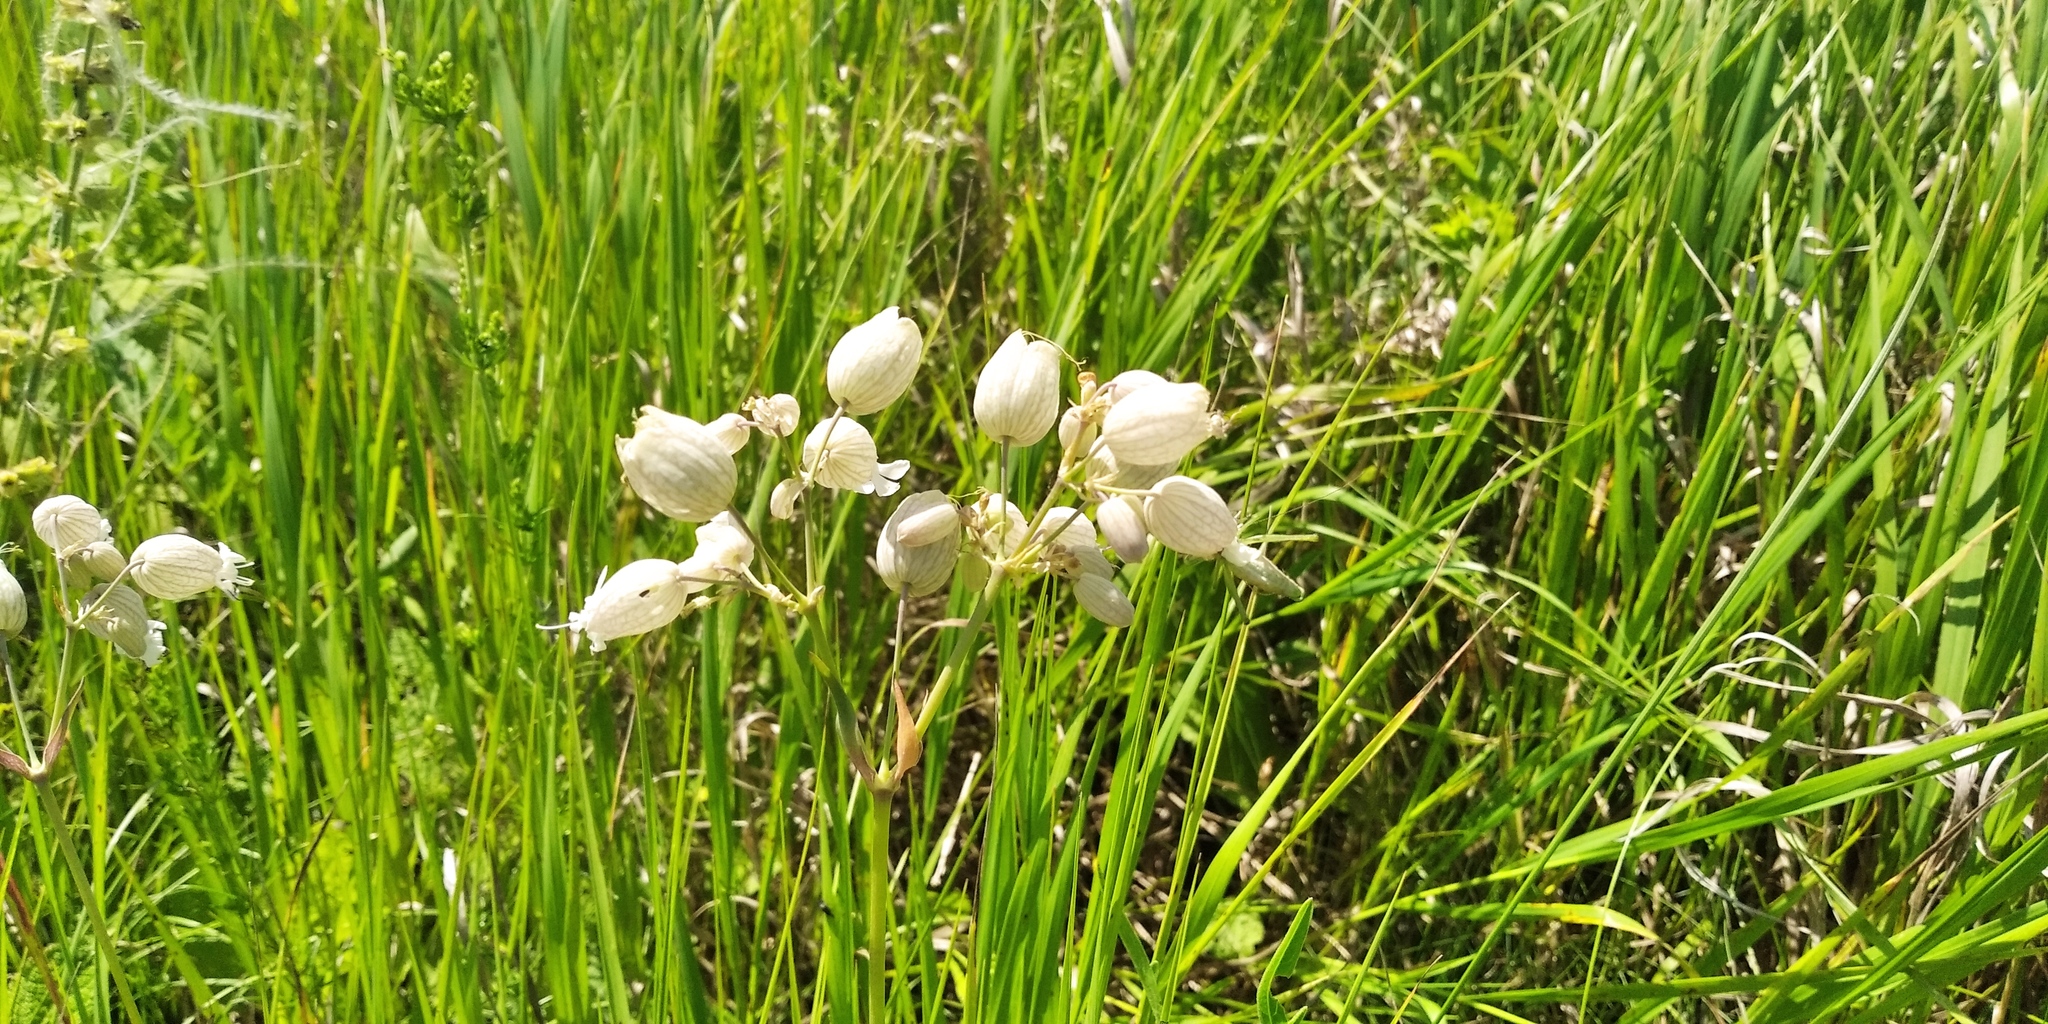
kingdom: Plantae
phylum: Tracheophyta
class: Magnoliopsida
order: Caryophyllales
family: Caryophyllaceae
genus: Silene
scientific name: Silene vulgaris
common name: Bladder campion
